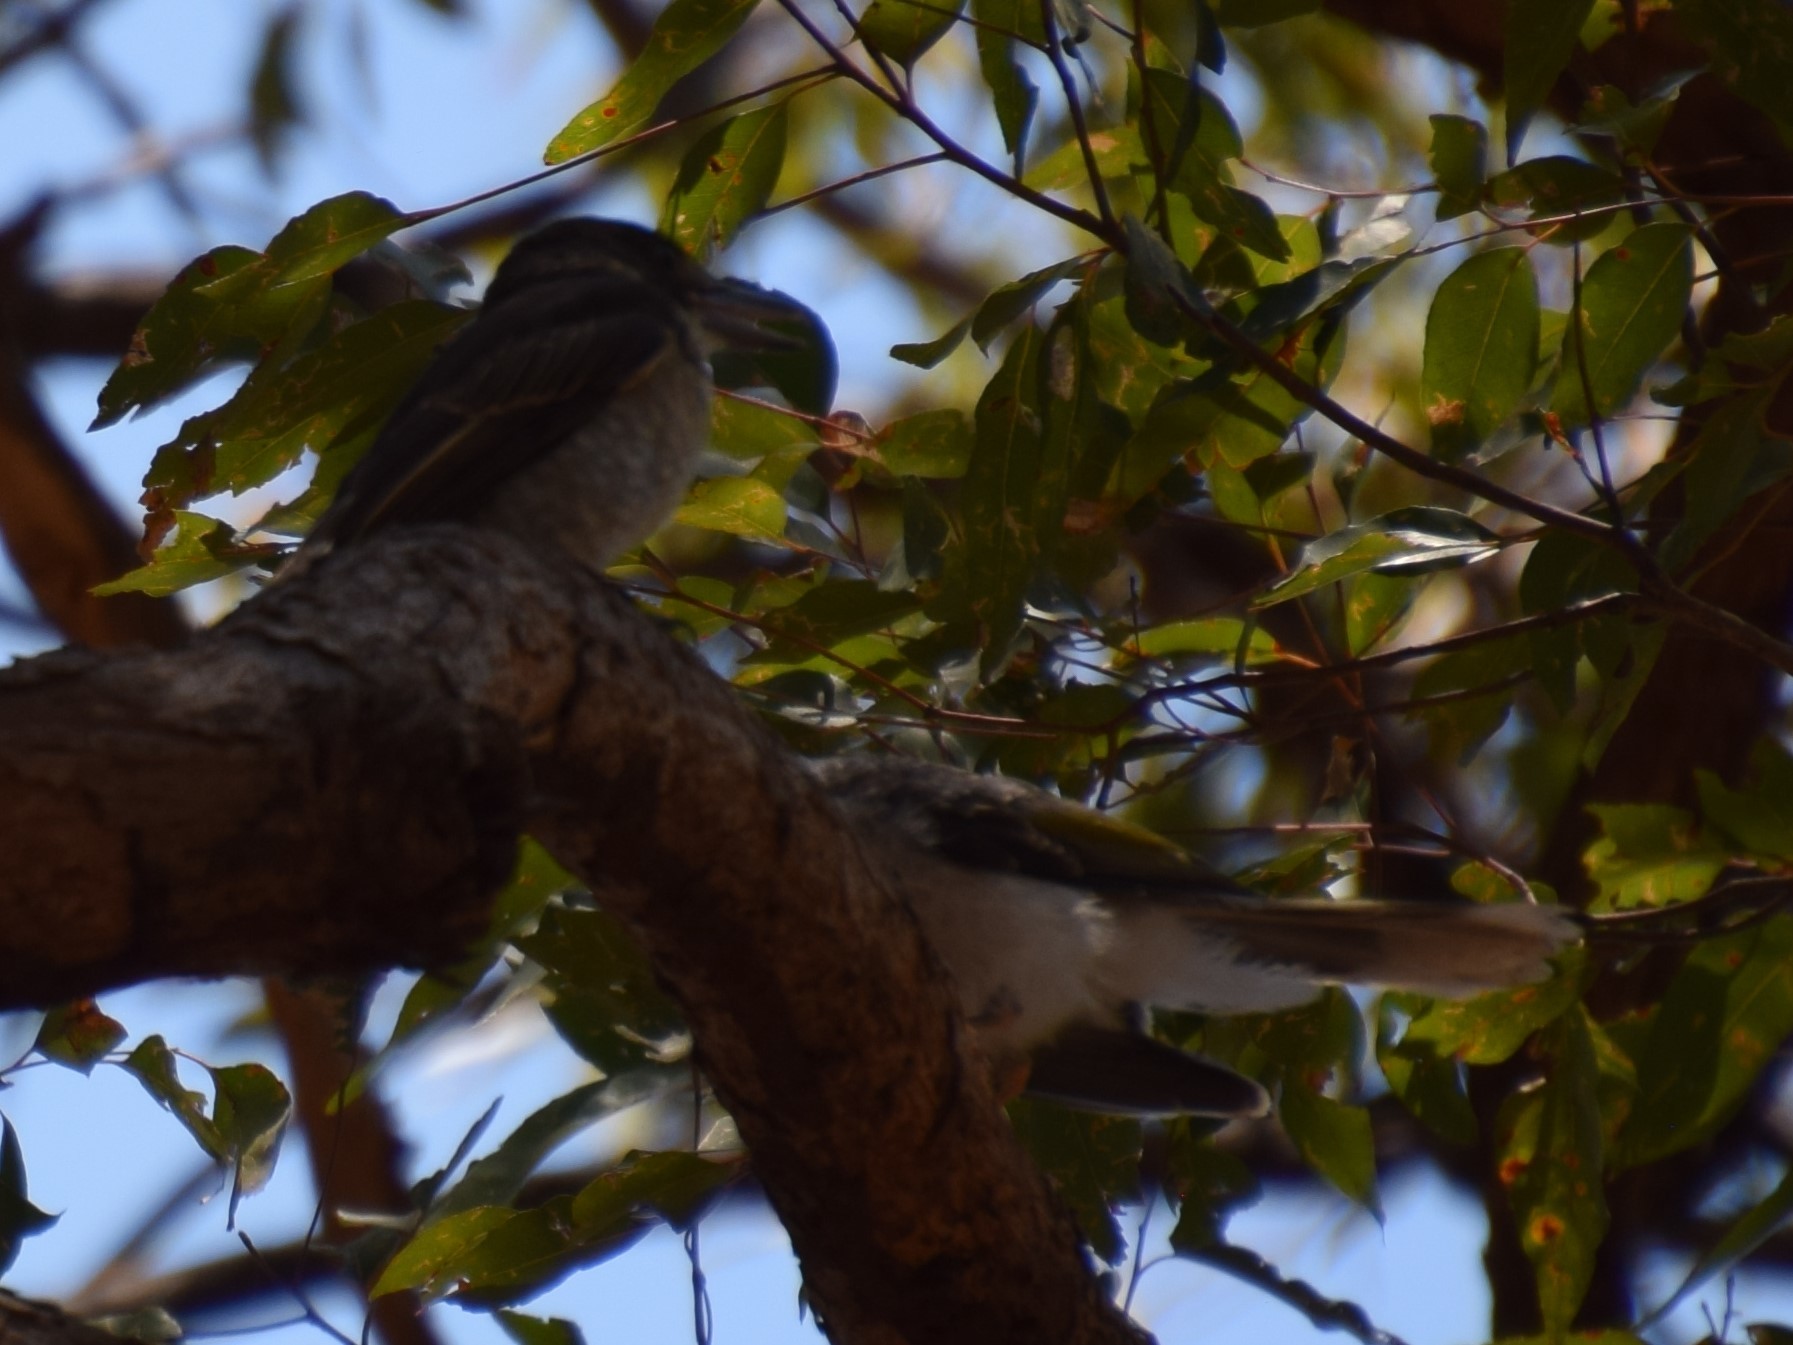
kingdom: Animalia
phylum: Chordata
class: Aves
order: Passeriformes
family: Cracticidae
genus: Cracticus
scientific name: Cracticus torquatus
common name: Grey butcherbird
